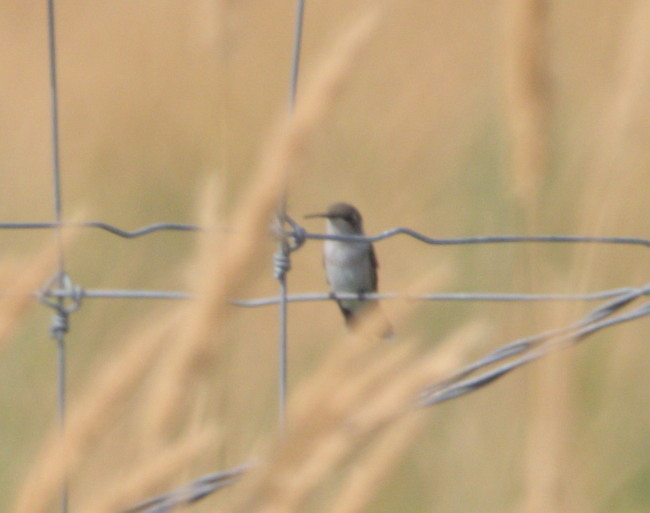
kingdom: Animalia
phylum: Chordata
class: Aves
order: Apodiformes
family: Trochilidae
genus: Archilochus
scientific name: Archilochus alexandri
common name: Black-chinned hummingbird
